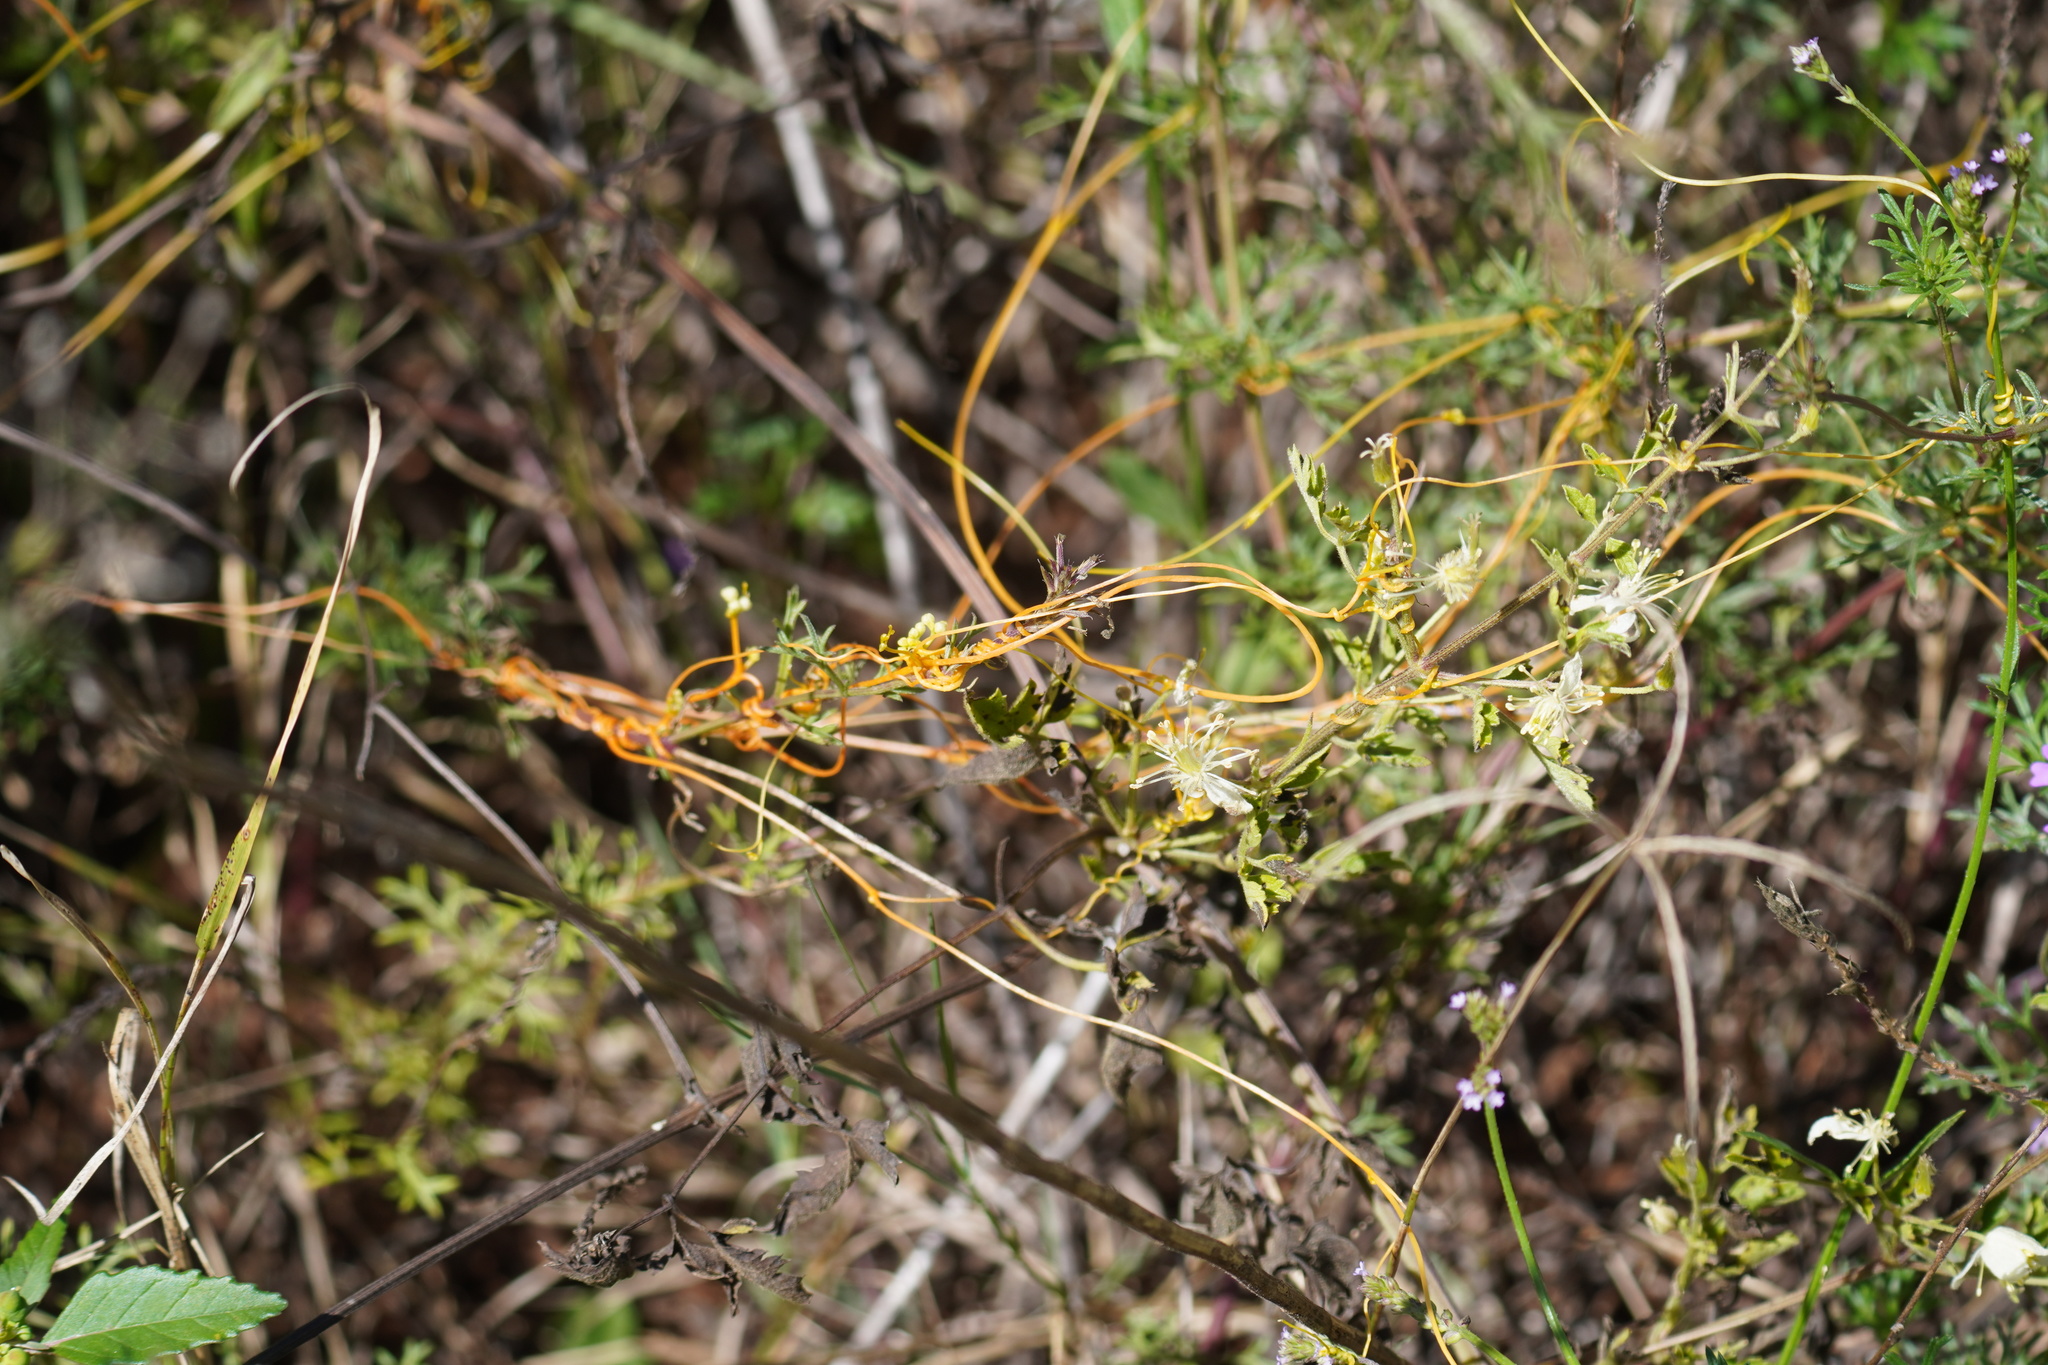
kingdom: Plantae
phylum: Tracheophyta
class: Magnoliopsida
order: Solanales
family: Convolvulaceae
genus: Cuscuta
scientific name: Cuscuta campestris
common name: Yellow dodder
